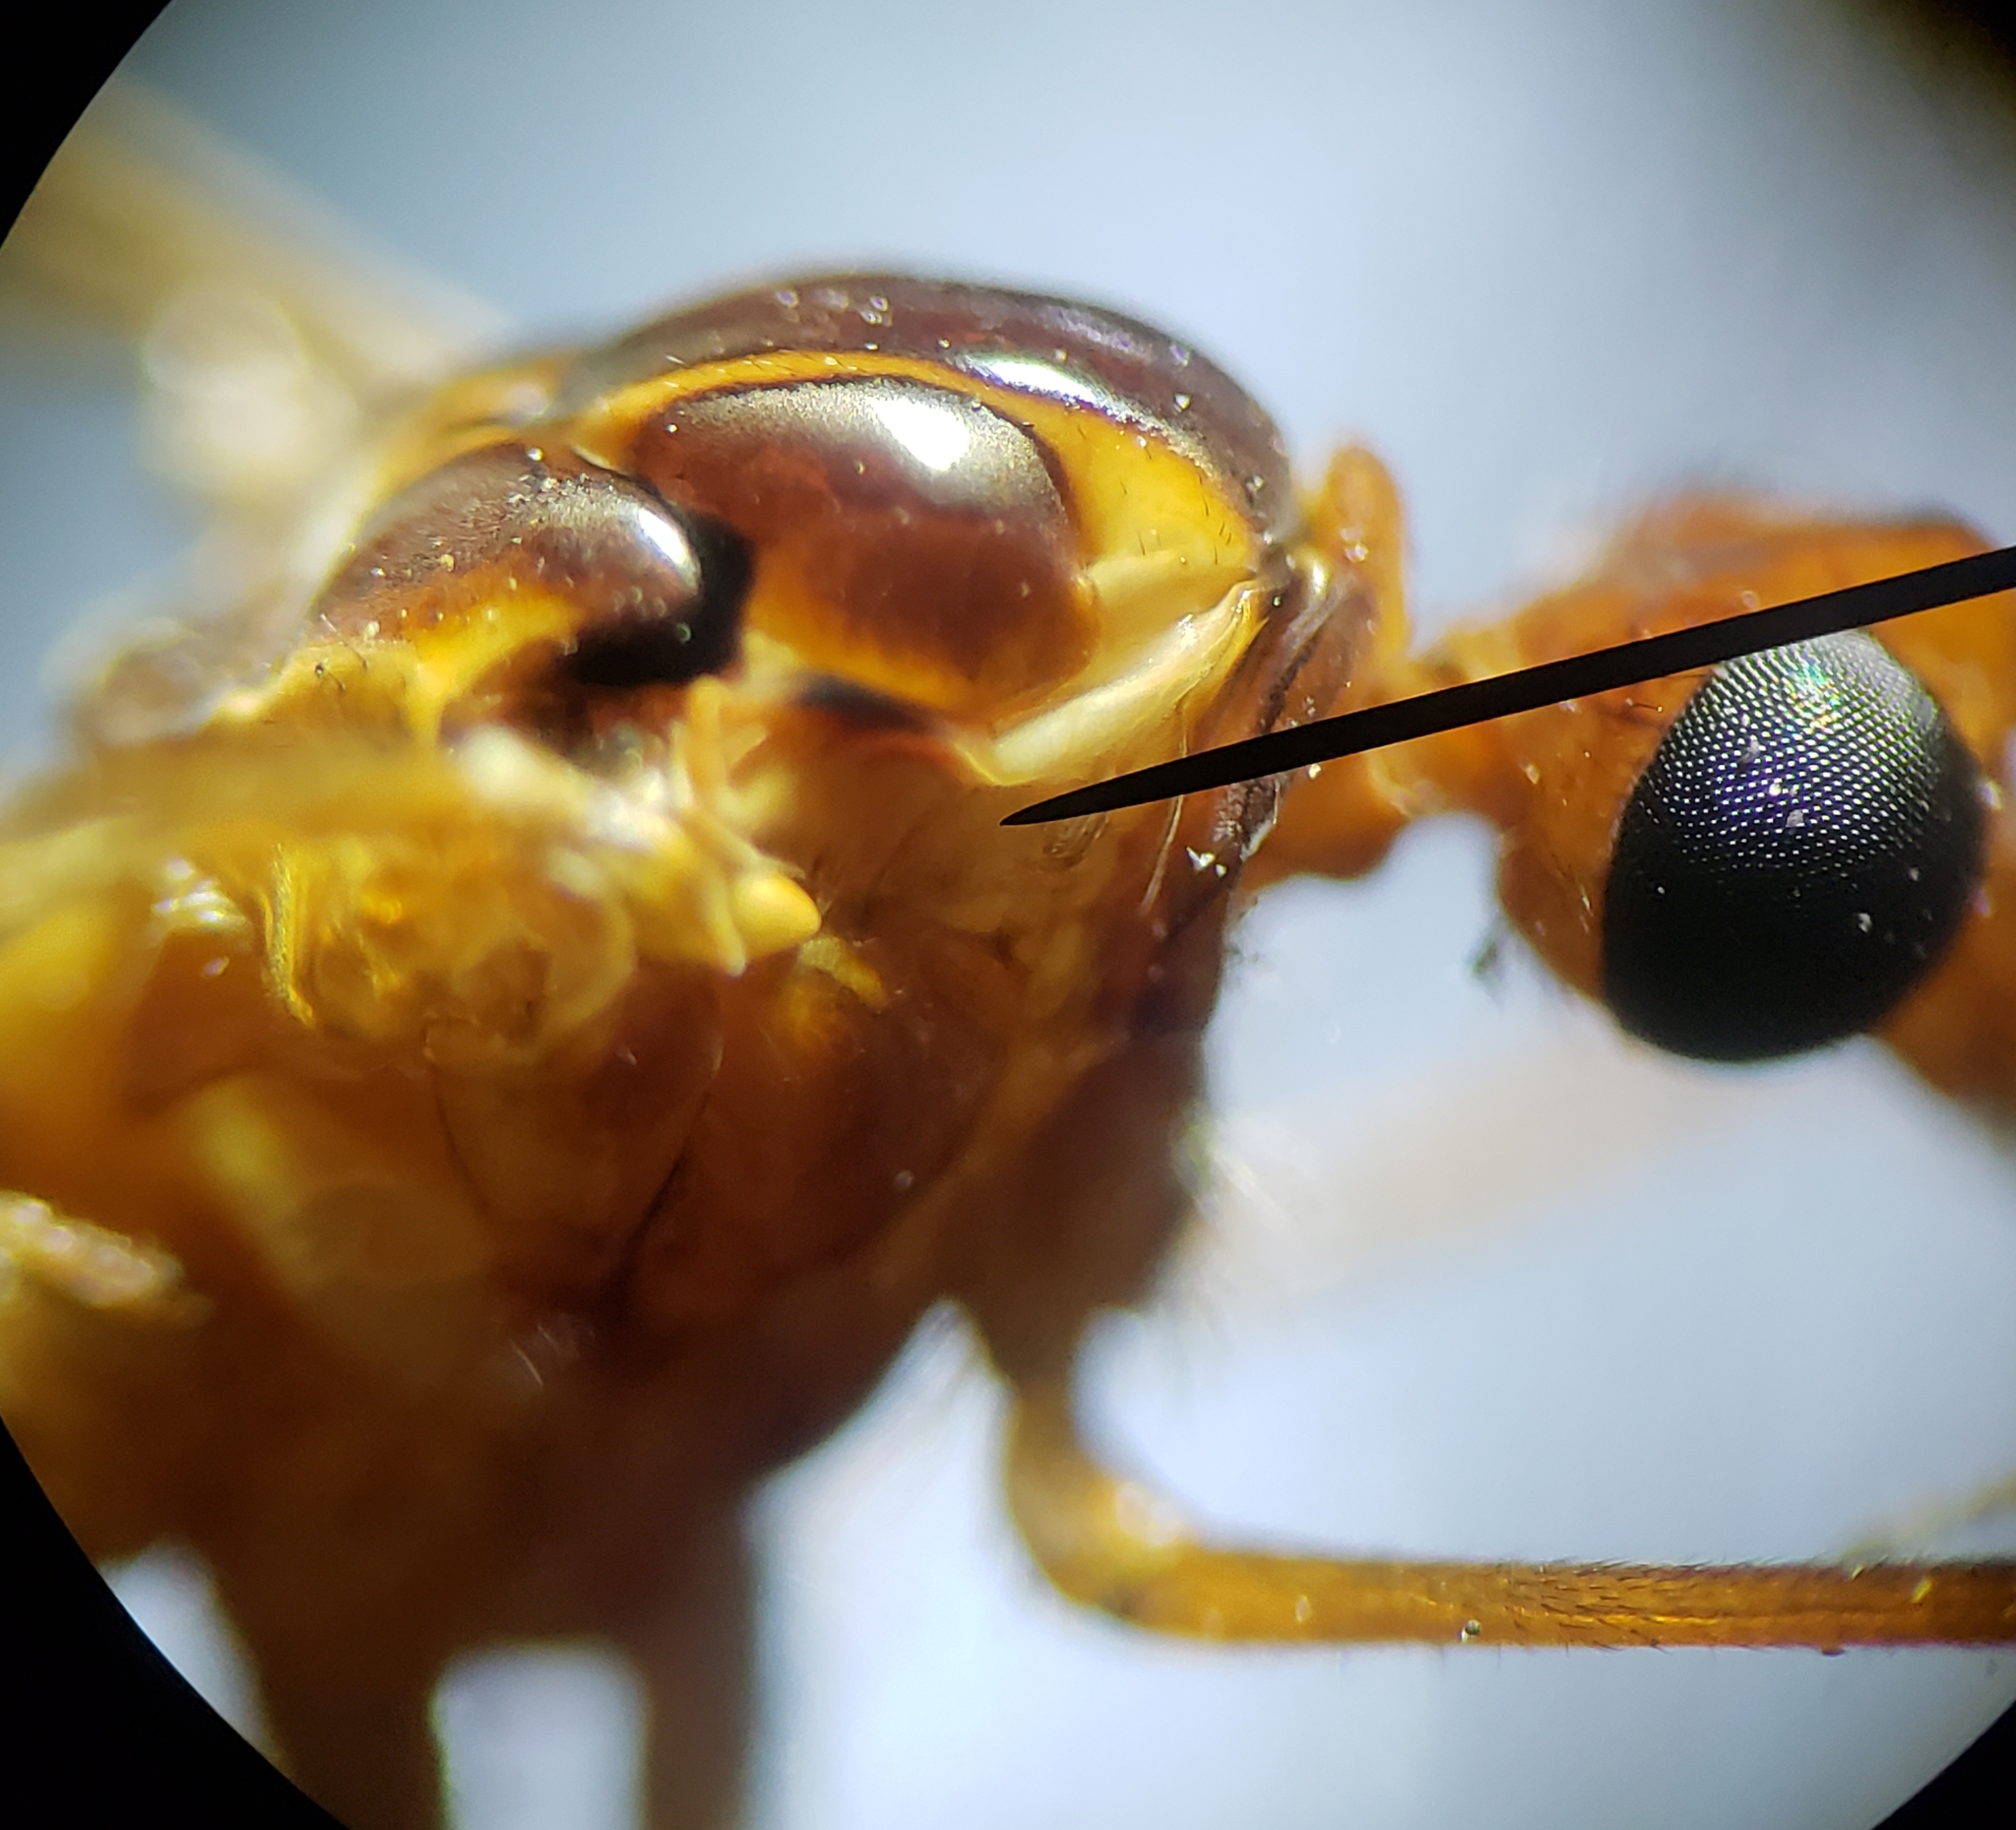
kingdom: Animalia
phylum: Arthropoda
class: Insecta
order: Diptera
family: Tipulidae
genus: Nephrotoma
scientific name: Nephrotoma suturalis
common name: Cranefly
